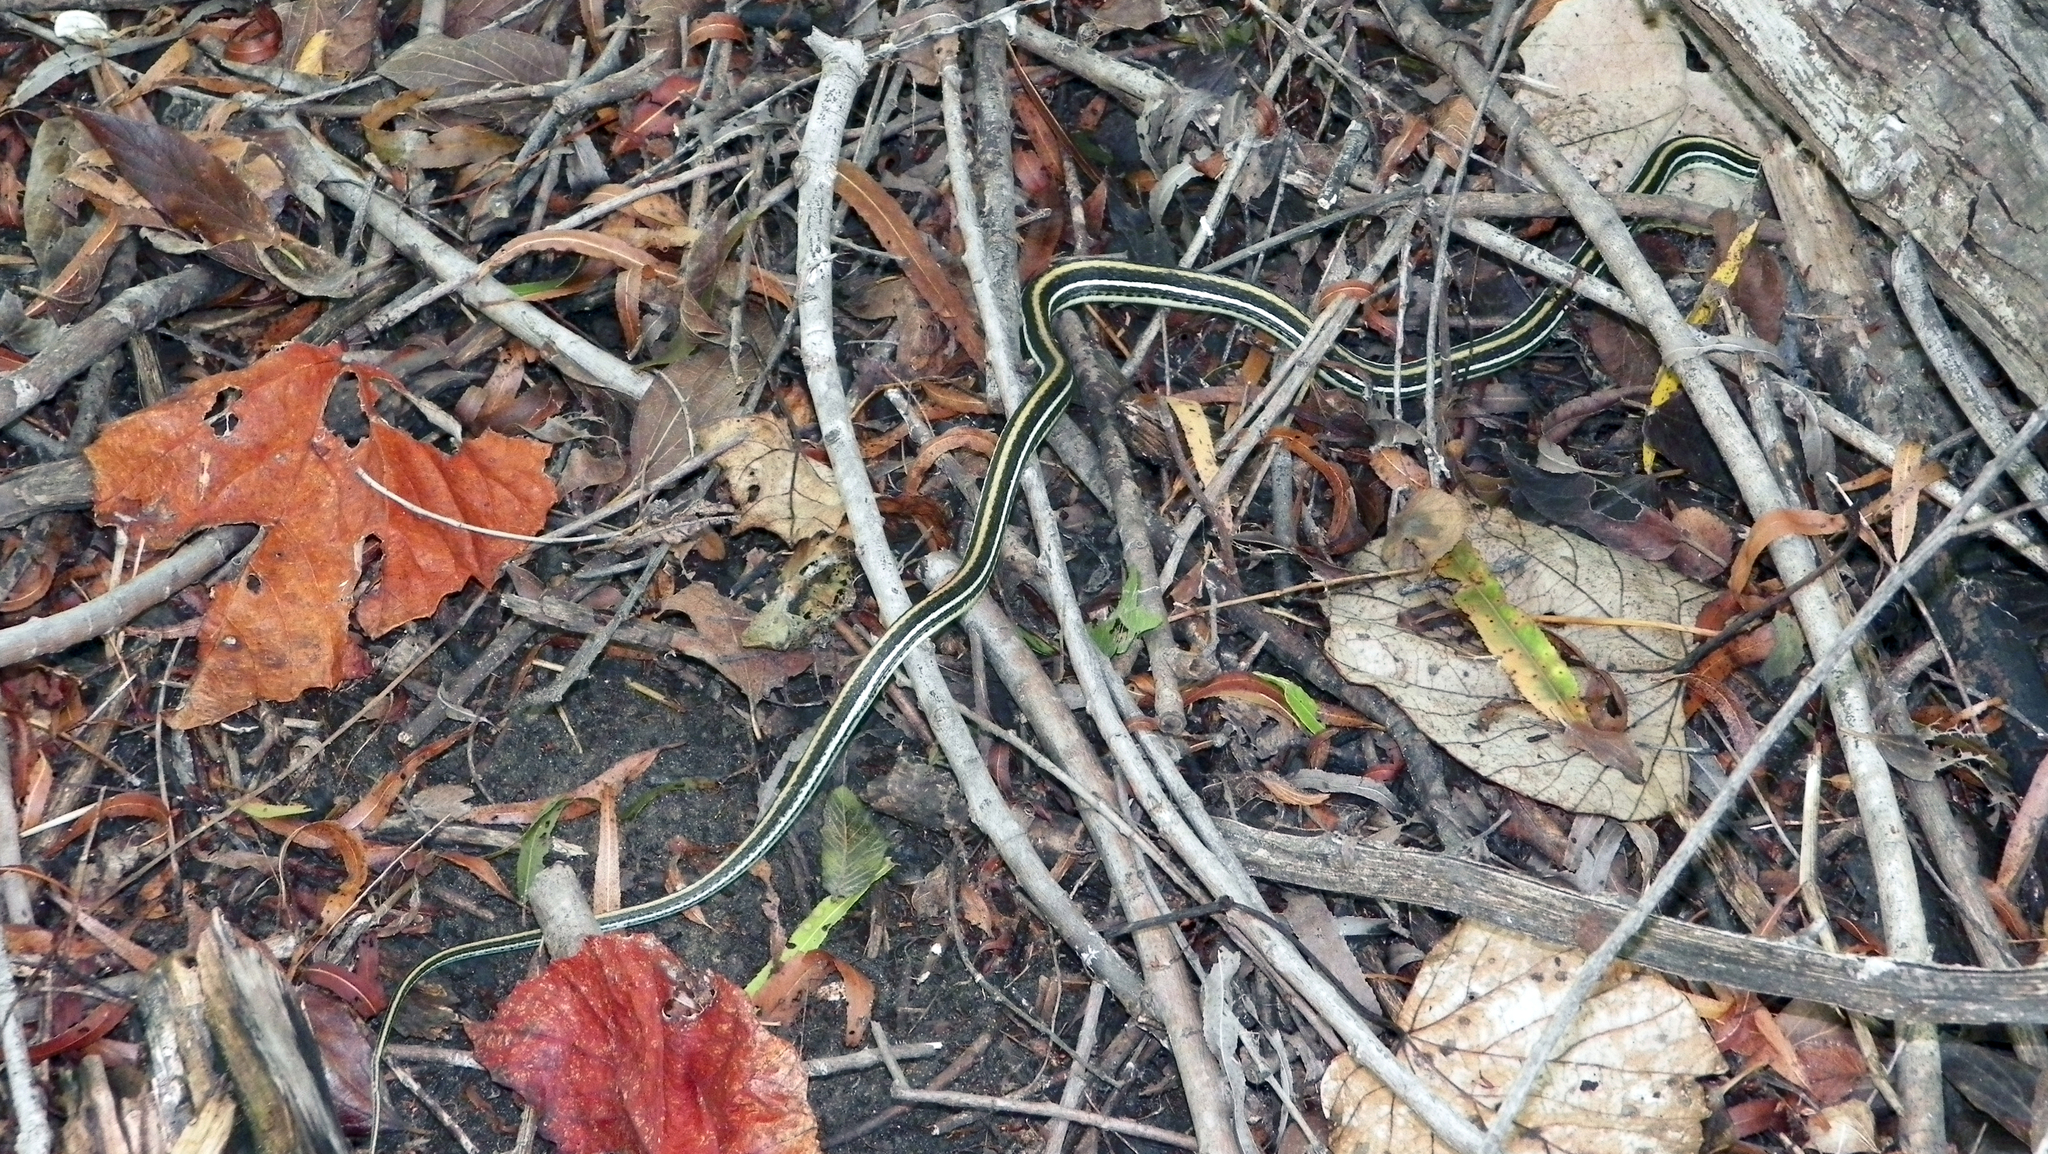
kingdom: Animalia
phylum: Chordata
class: Squamata
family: Colubridae
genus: Thamnophis
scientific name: Thamnophis proximus
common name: Western ribbon snake
